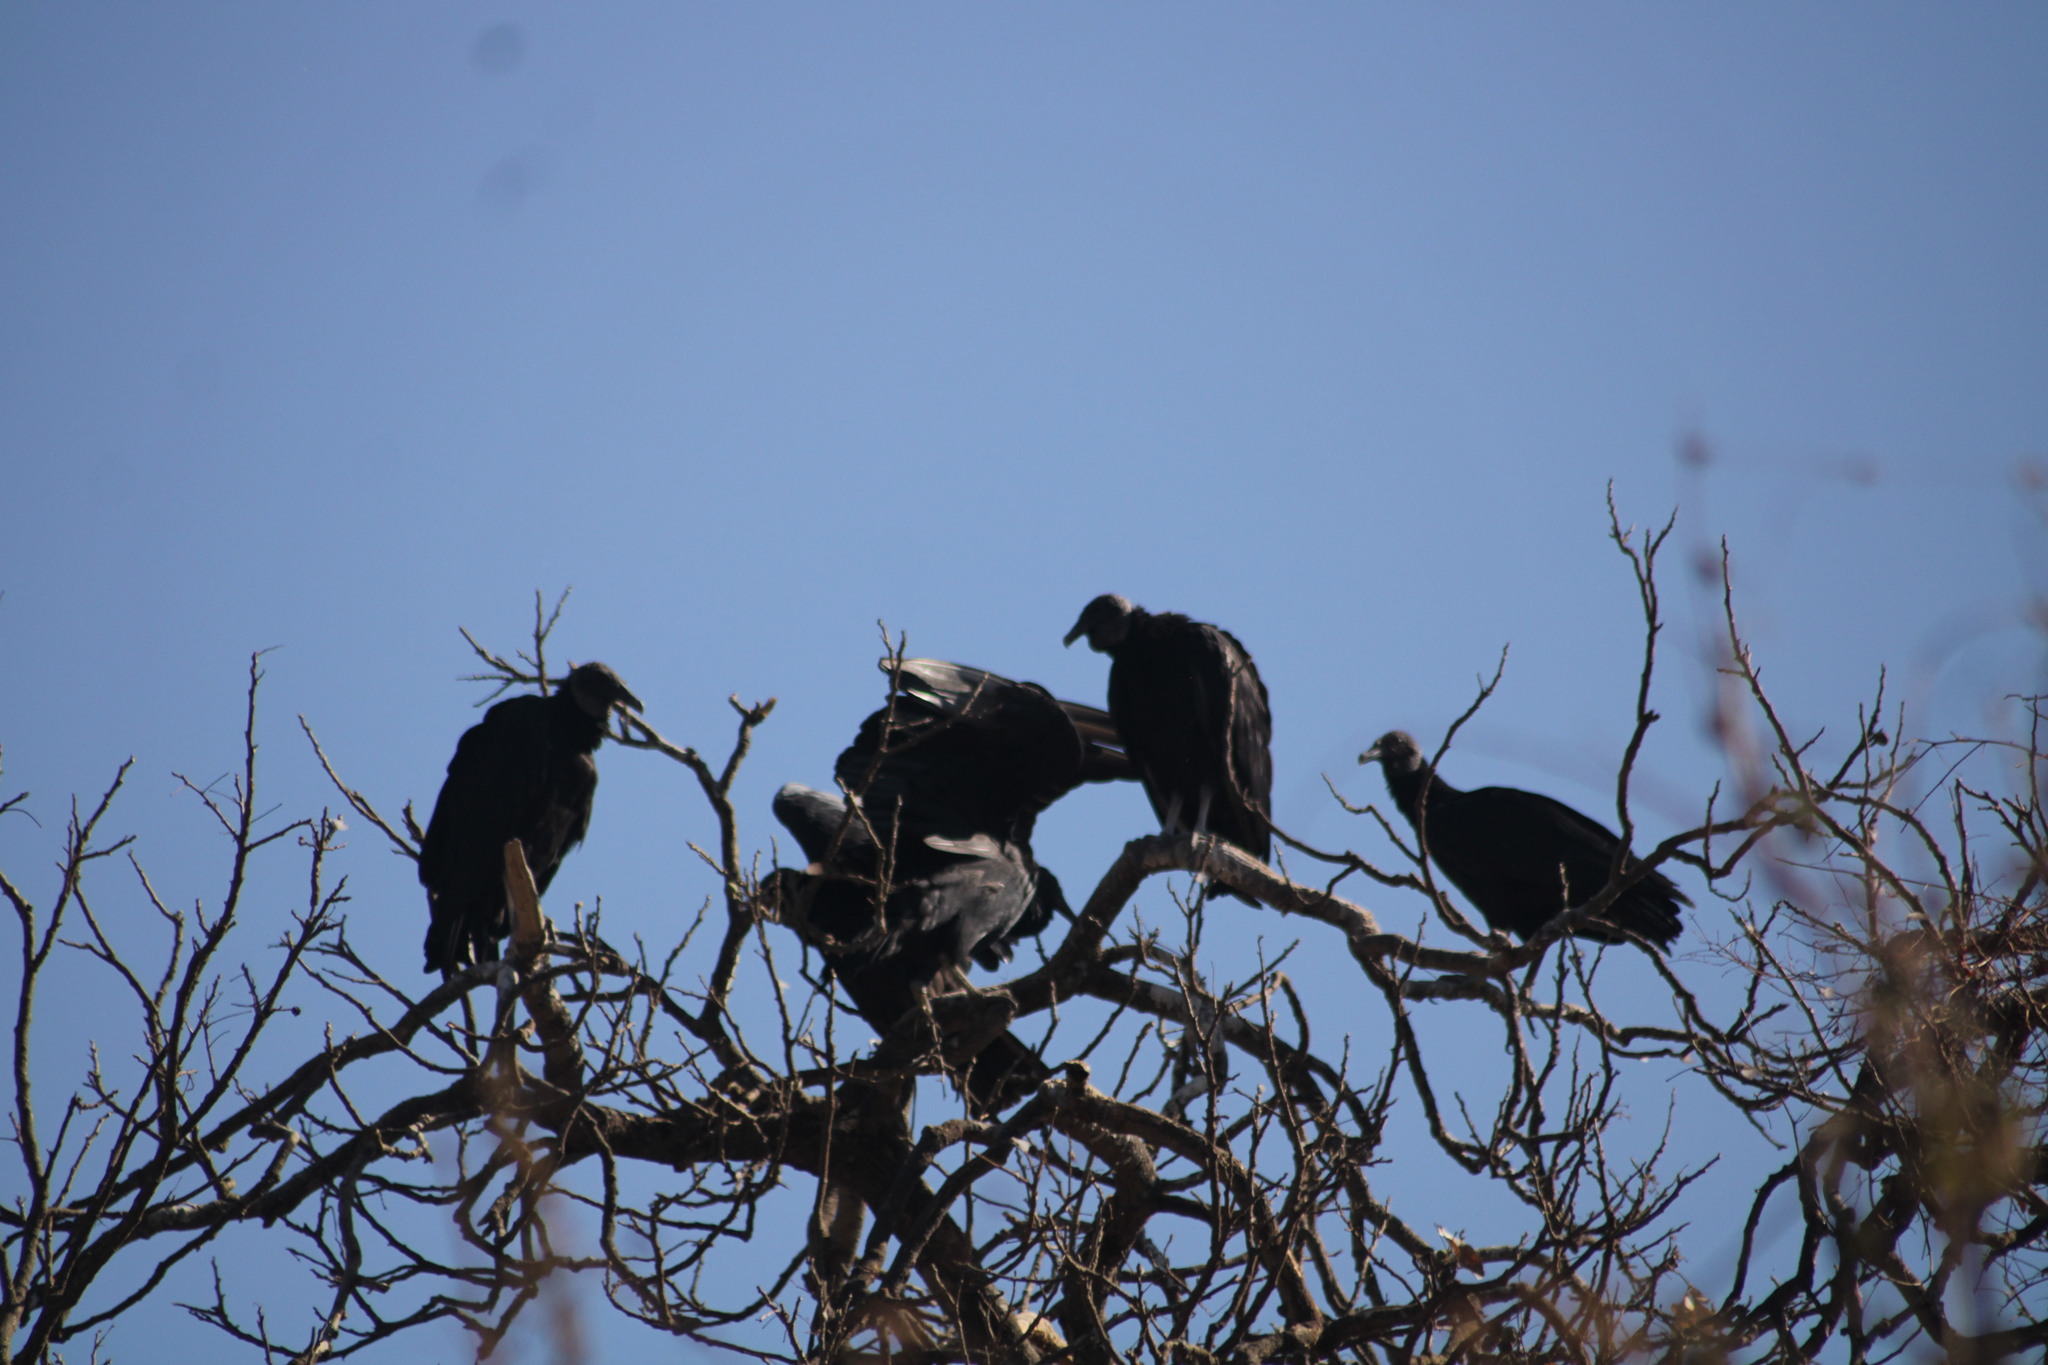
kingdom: Animalia
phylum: Chordata
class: Aves
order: Accipitriformes
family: Cathartidae
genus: Coragyps
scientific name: Coragyps atratus
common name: Black vulture
